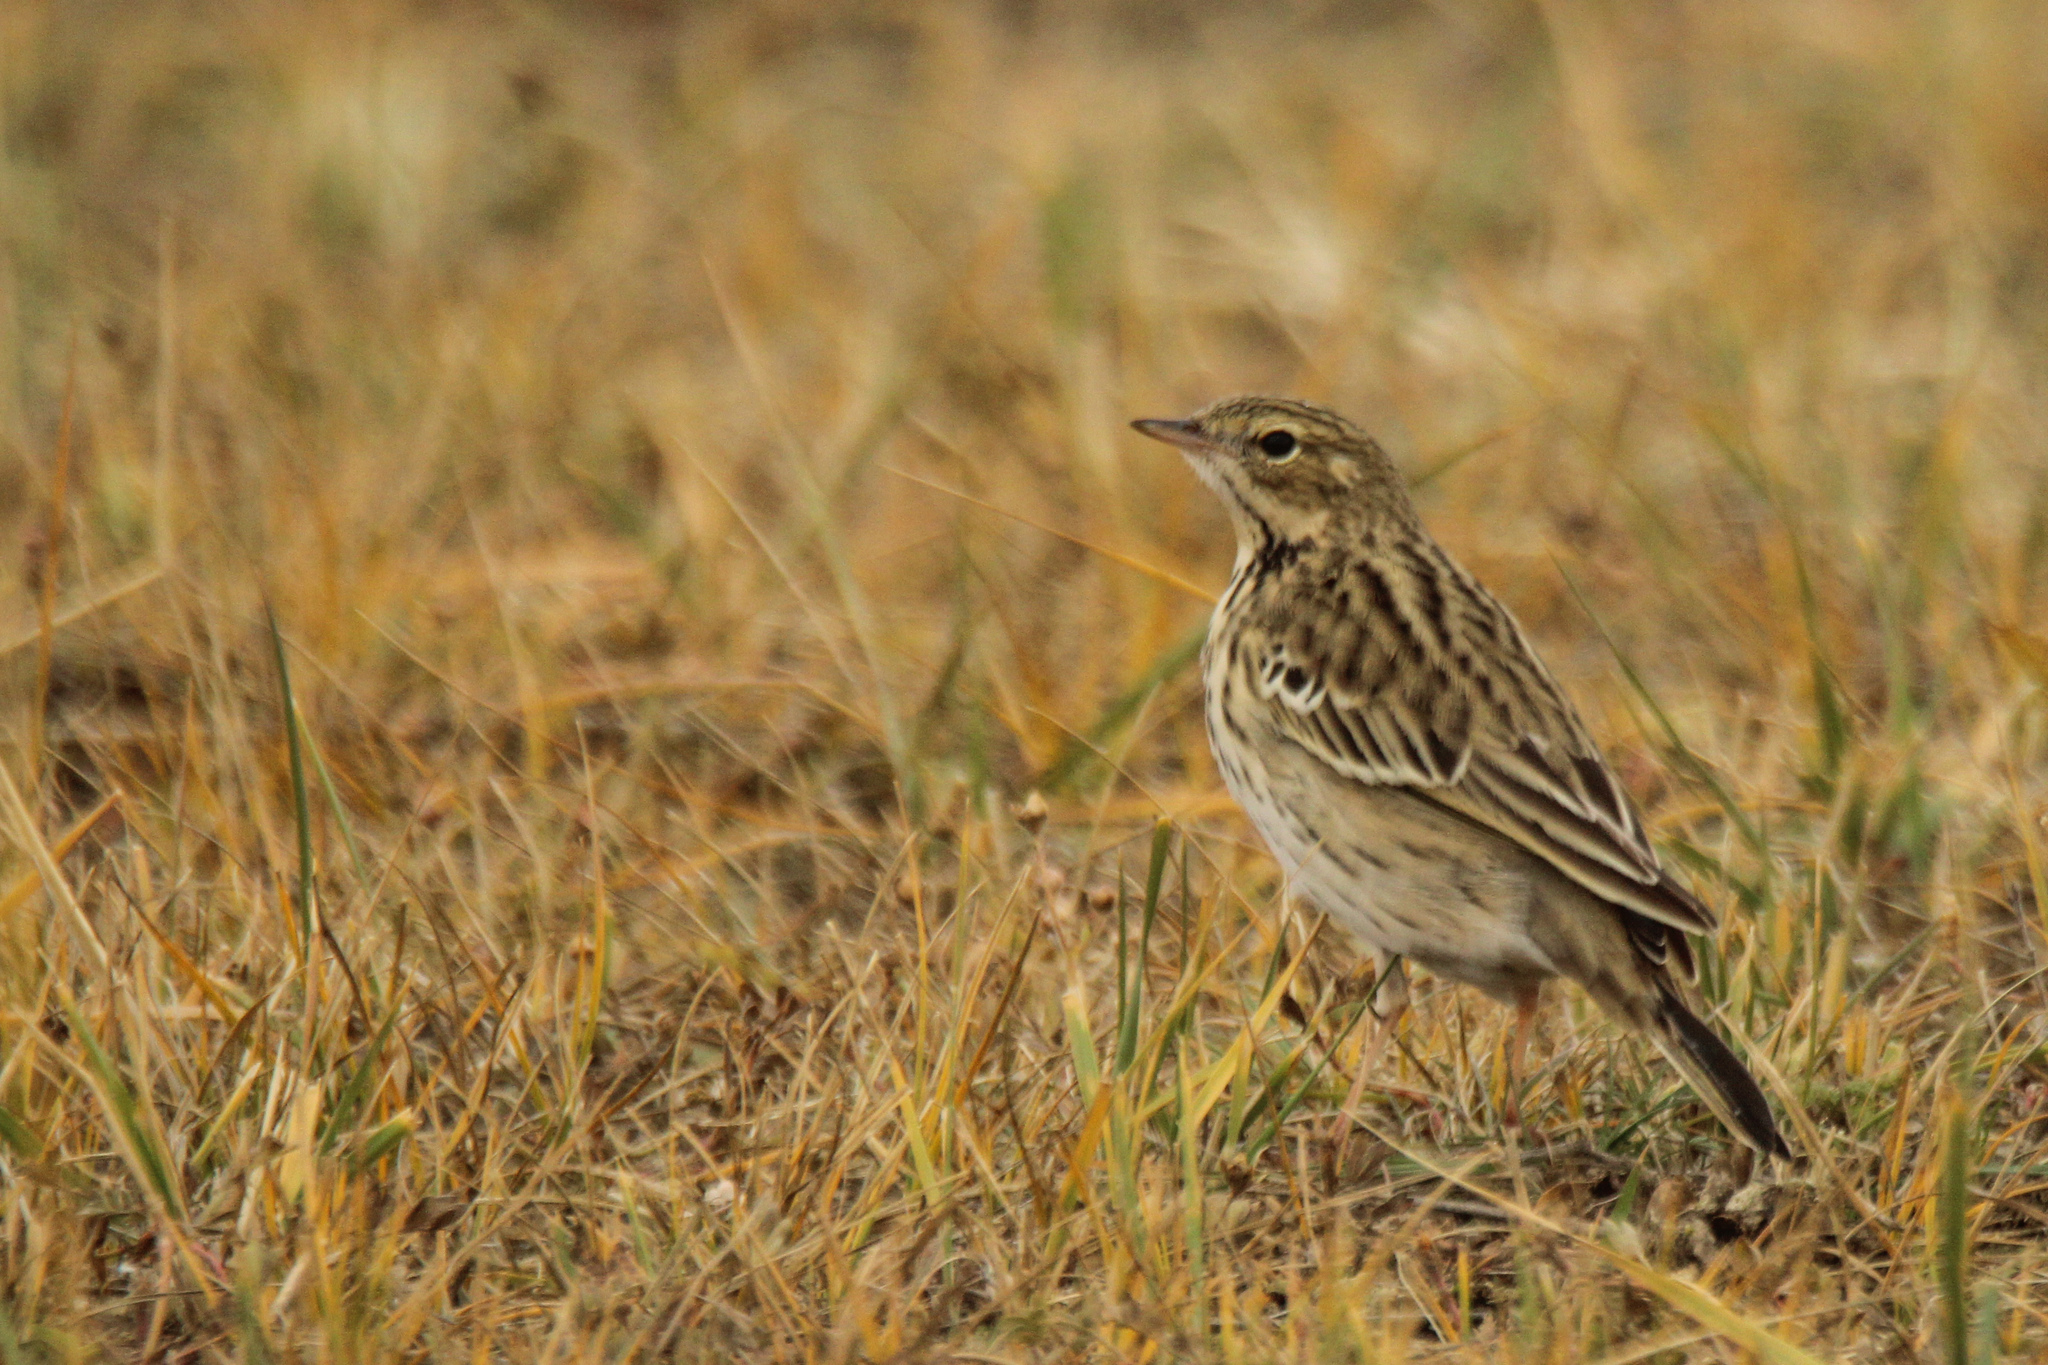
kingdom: Animalia
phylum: Chordata
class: Aves
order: Passeriformes
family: Motacillidae
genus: Anthus
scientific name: Anthus trivialis
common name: Tree pipit
